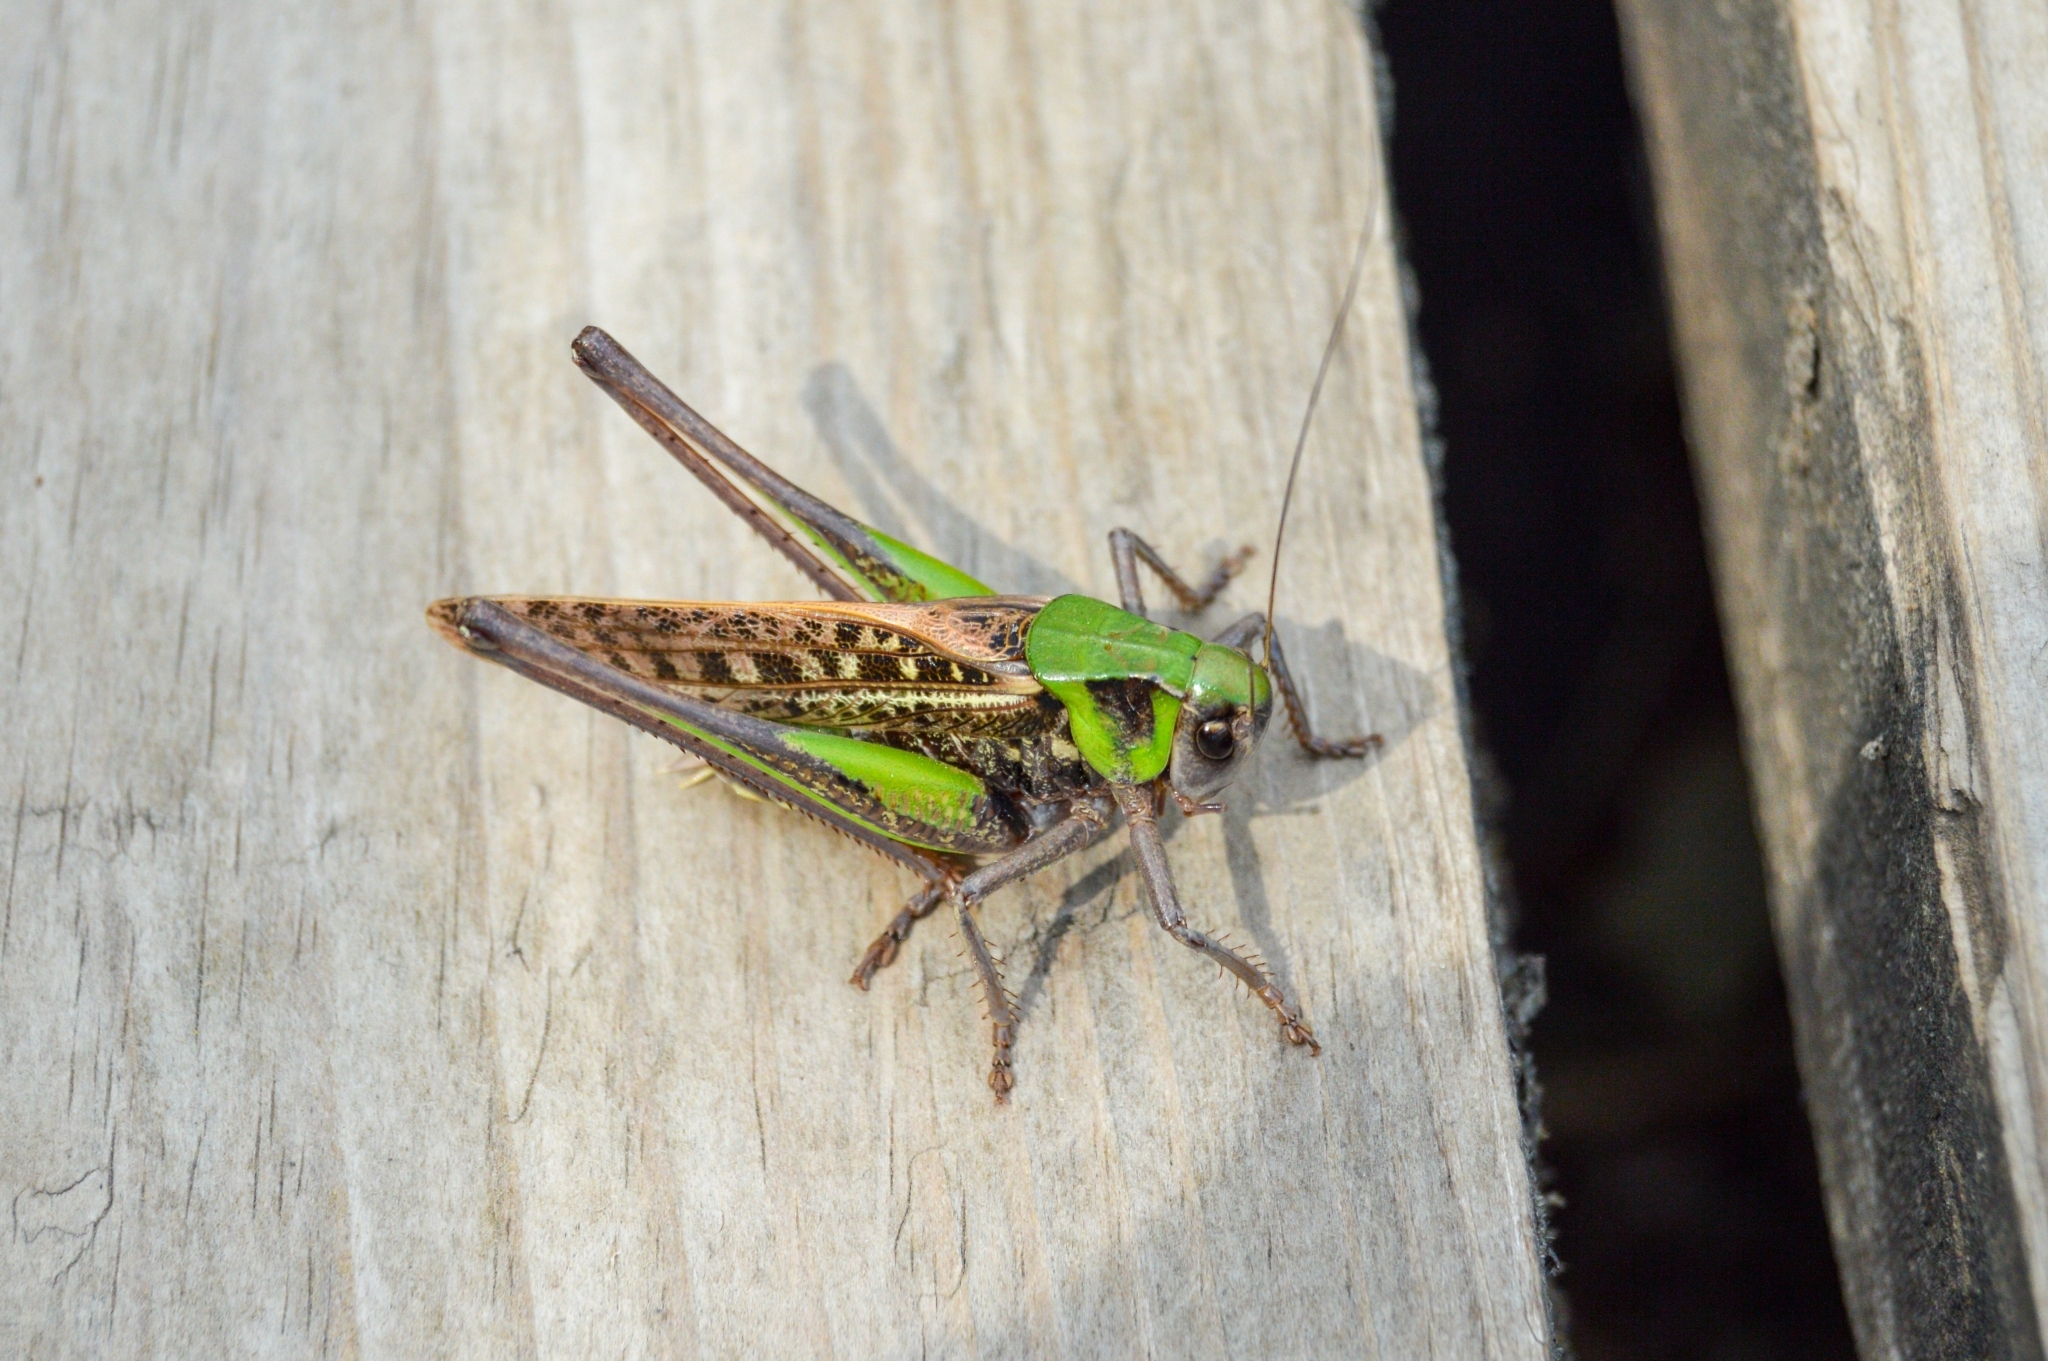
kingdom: Animalia
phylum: Arthropoda
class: Insecta
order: Orthoptera
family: Tettigoniidae
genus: Decticus
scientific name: Decticus verrucivorus
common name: Wart-biter
